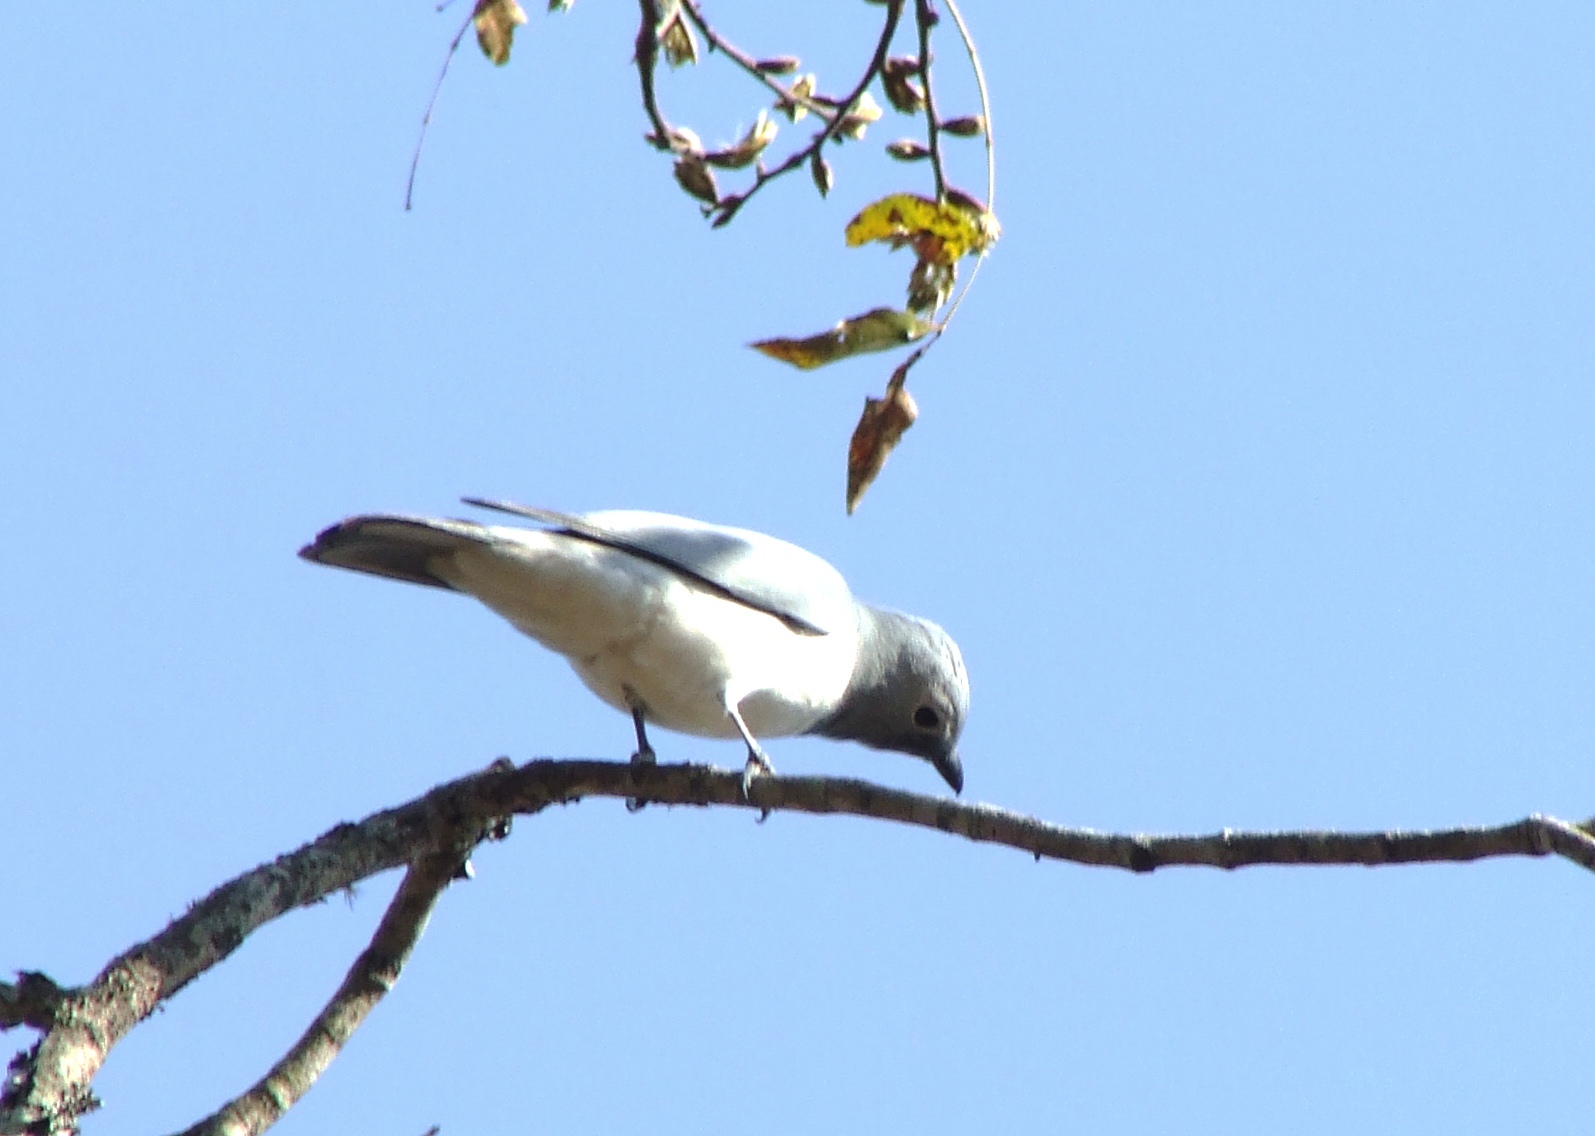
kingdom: Animalia
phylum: Chordata
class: Aves
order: Passeriformes
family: Campephagidae
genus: Coracina
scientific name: Coracina pectoralis
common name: White-breasted cuckooshrike
